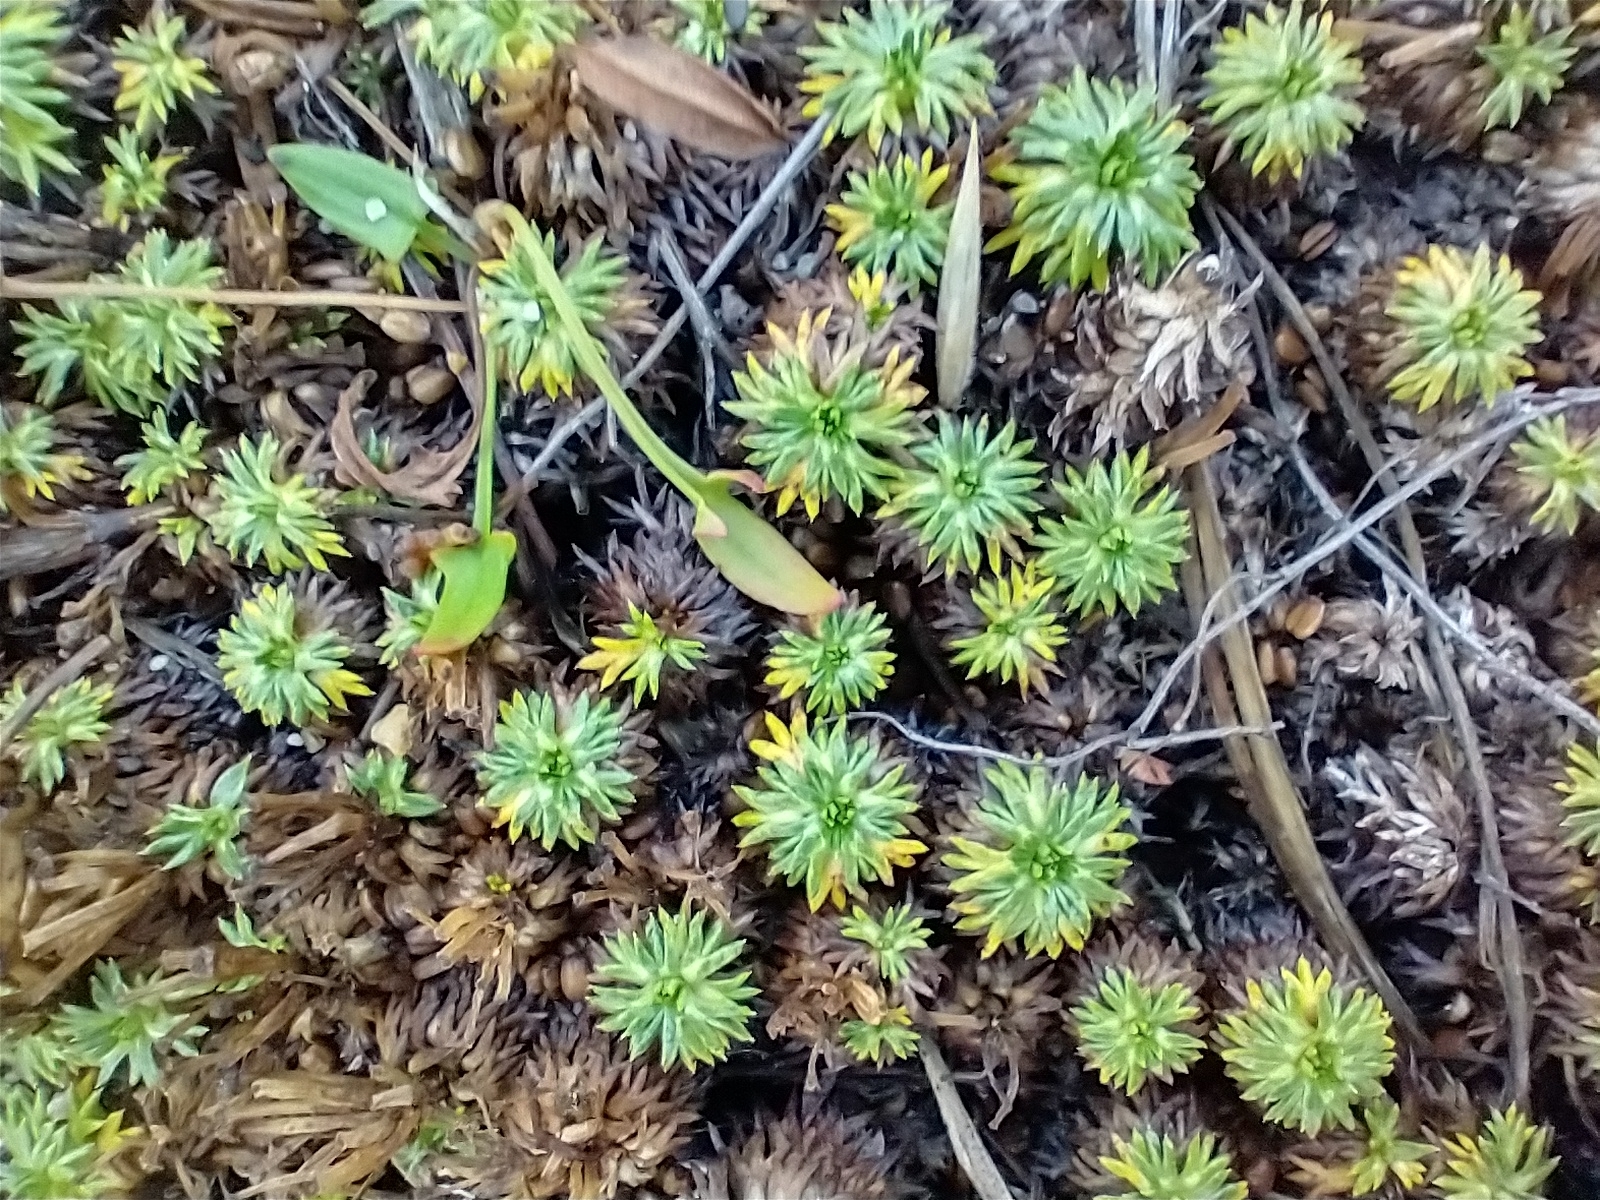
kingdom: Plantae
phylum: Tracheophyta
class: Magnoliopsida
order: Apiales
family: Apiaceae
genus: Azorella
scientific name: Azorella trifurcata
